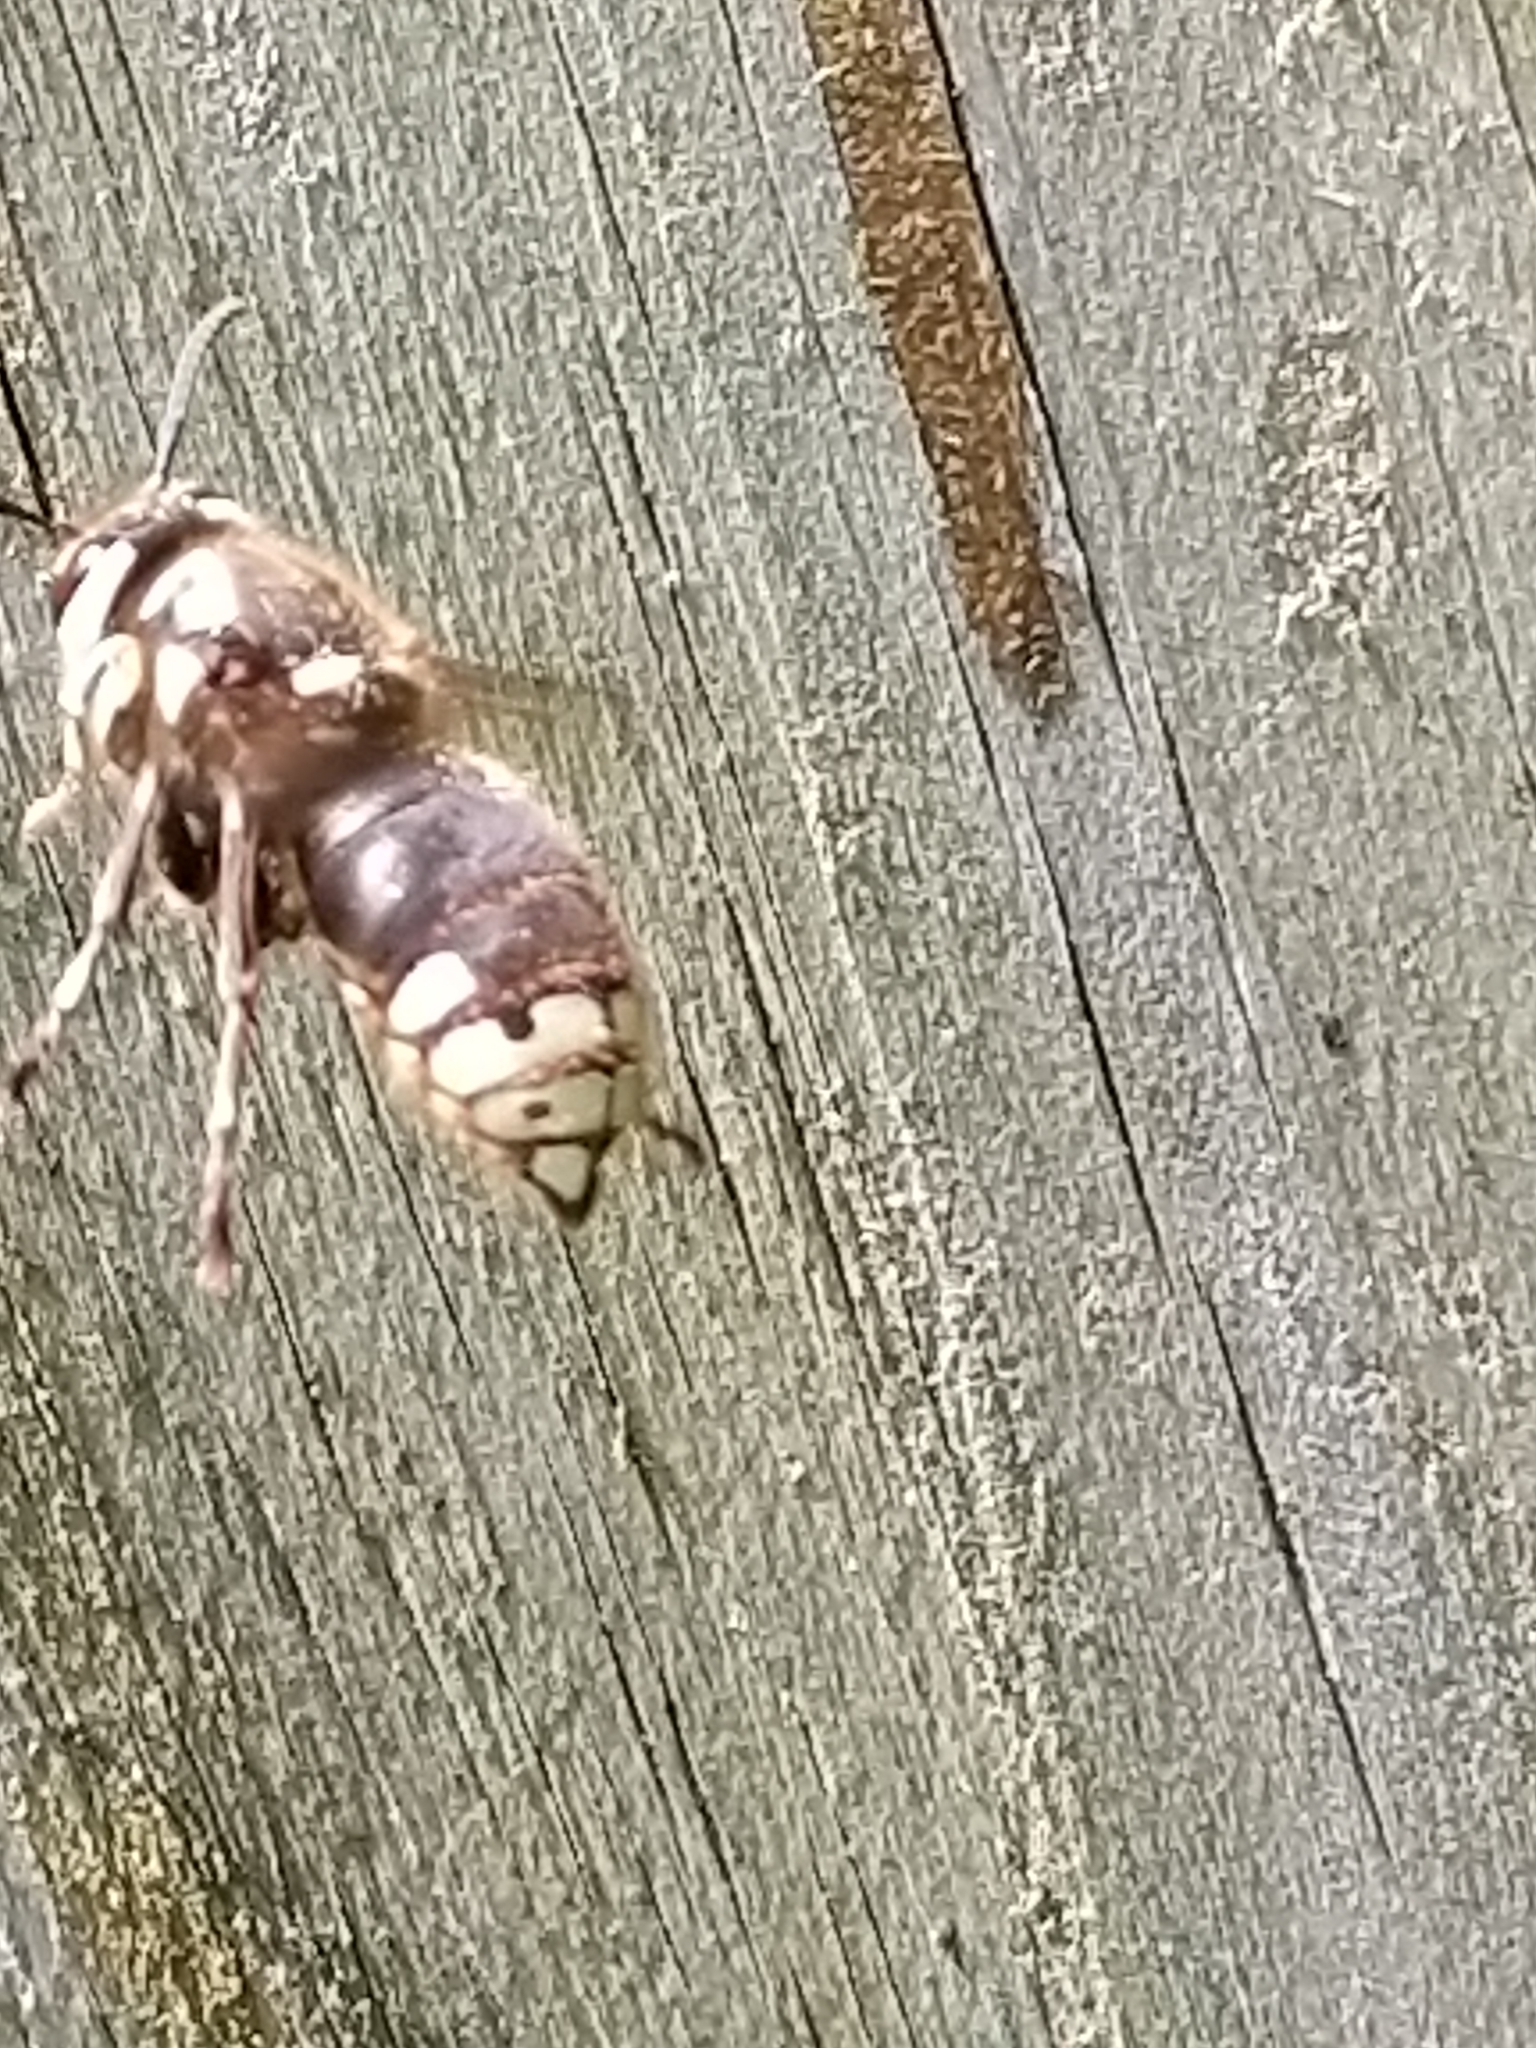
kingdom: Animalia
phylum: Arthropoda
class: Insecta
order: Hymenoptera
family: Vespidae
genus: Dolichovespula
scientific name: Dolichovespula maculata
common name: Bald-faced hornet
